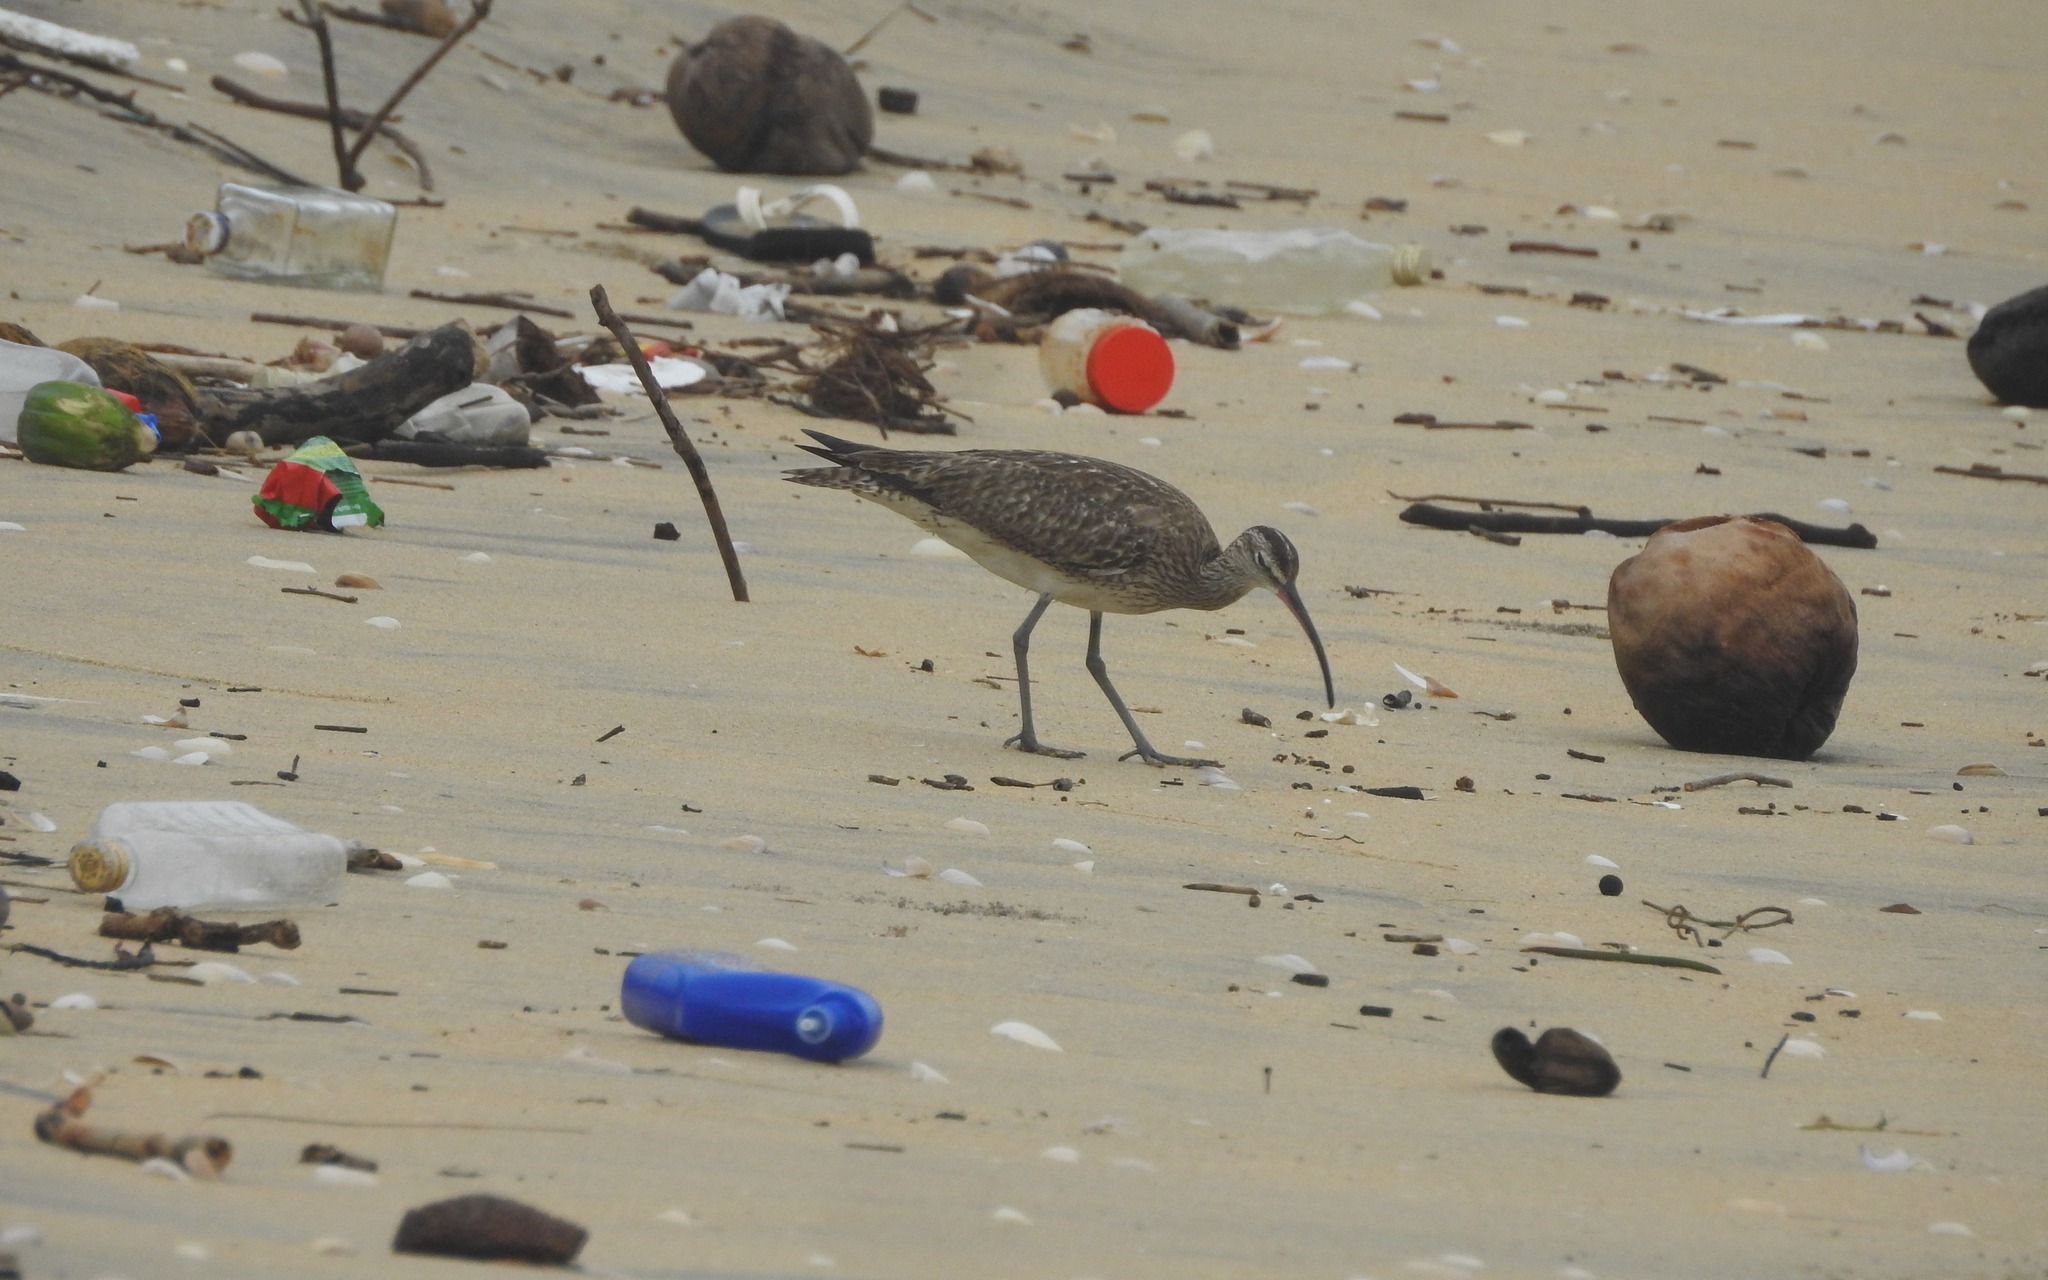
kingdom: Animalia
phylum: Chordata
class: Aves
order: Charadriiformes
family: Scolopacidae
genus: Numenius
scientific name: Numenius phaeopus
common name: Whimbrel
